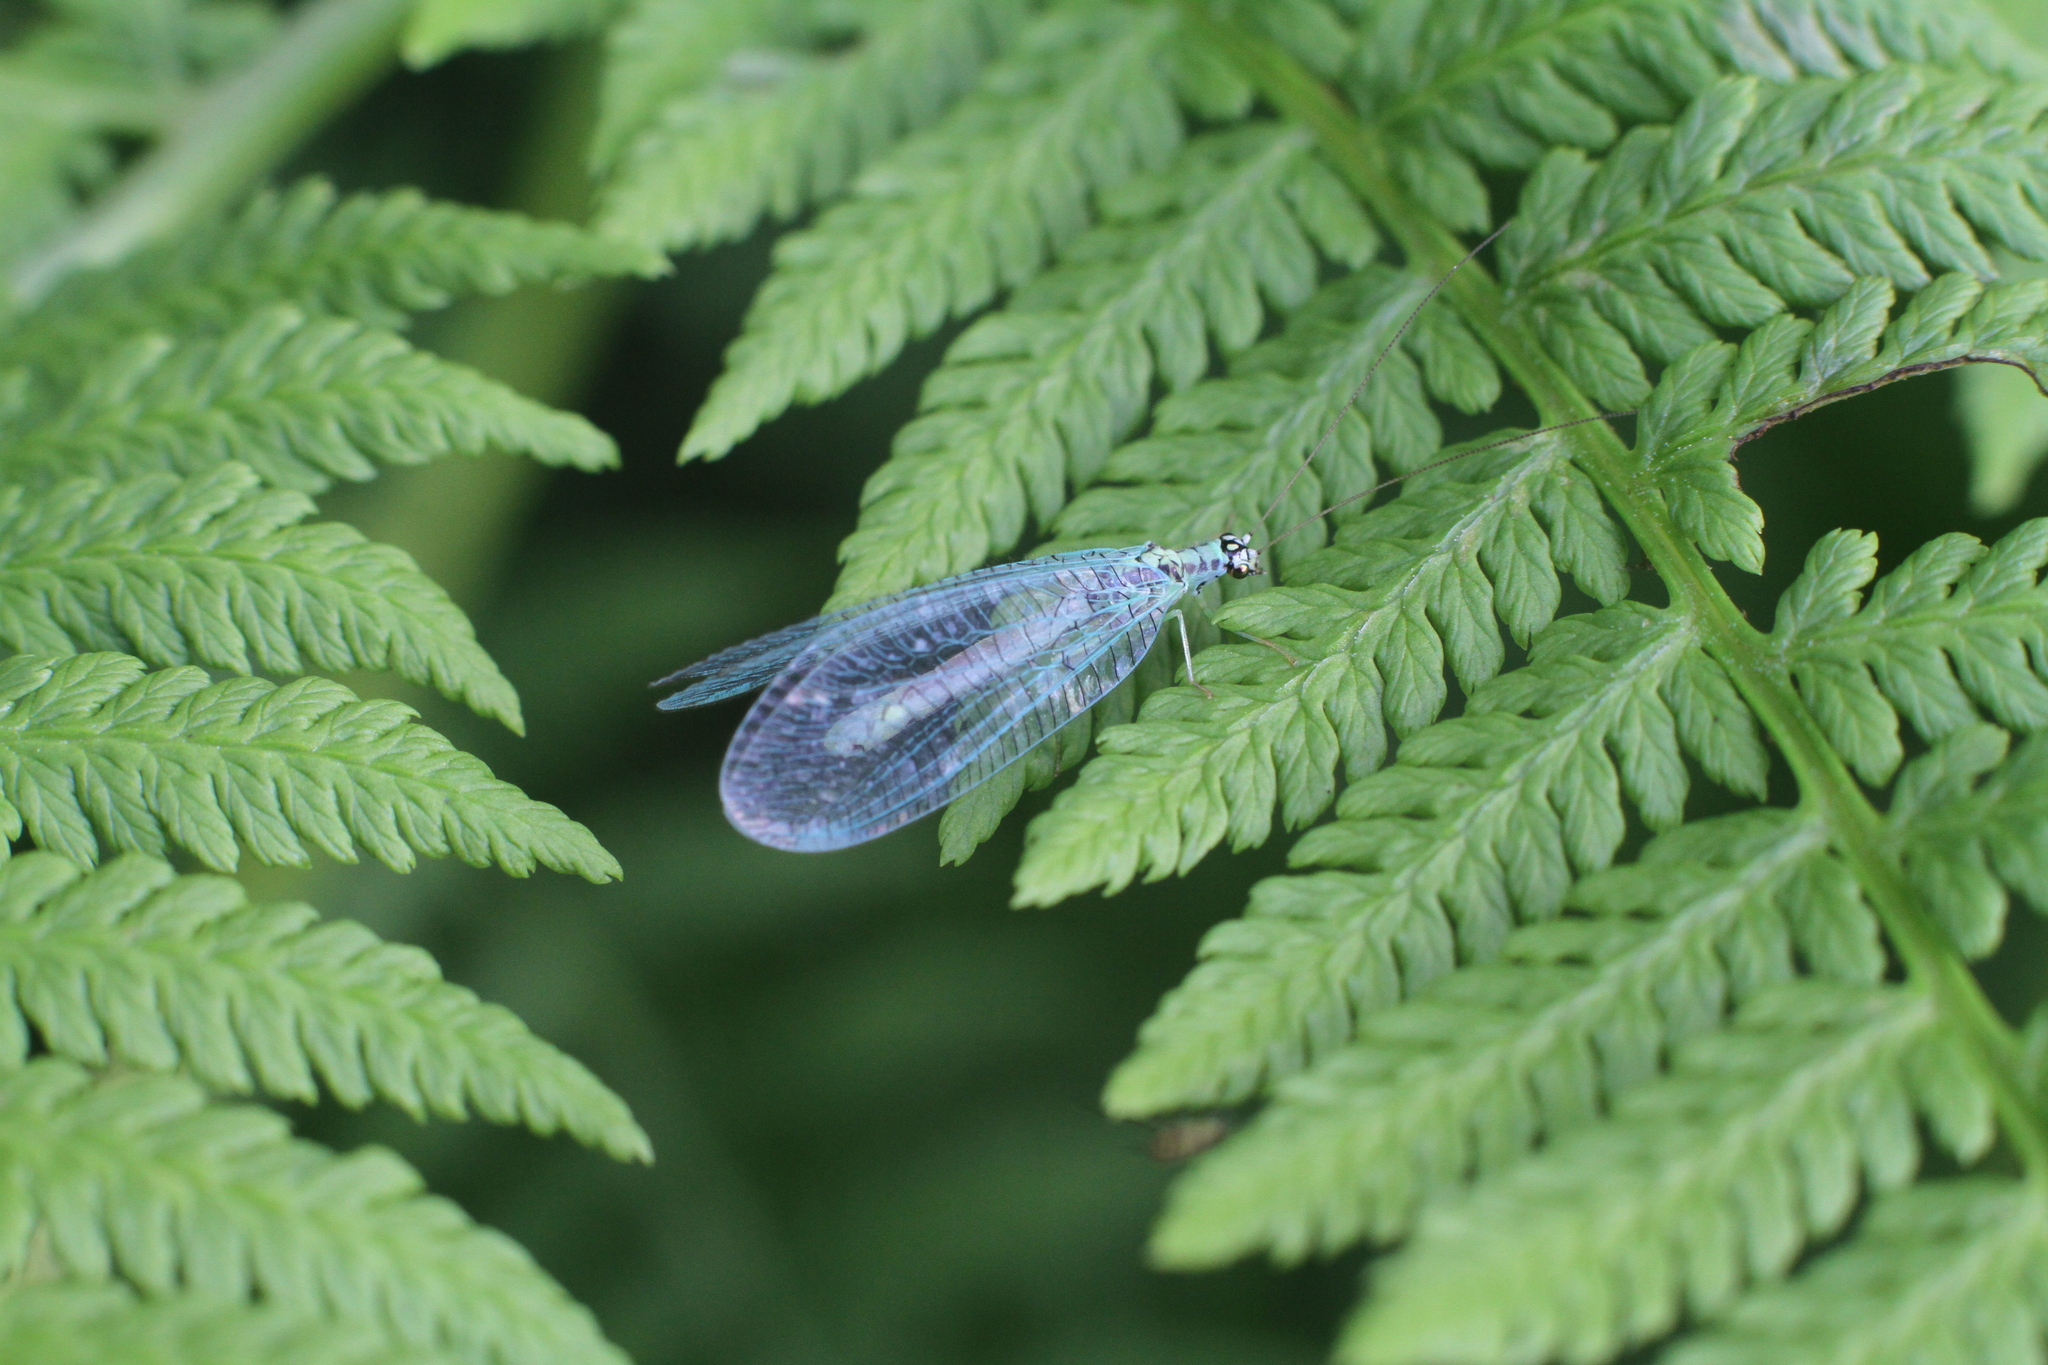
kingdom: Animalia
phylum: Arthropoda
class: Insecta
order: Neuroptera
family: Chrysopidae
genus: Chrysopa
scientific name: Chrysopa perla
